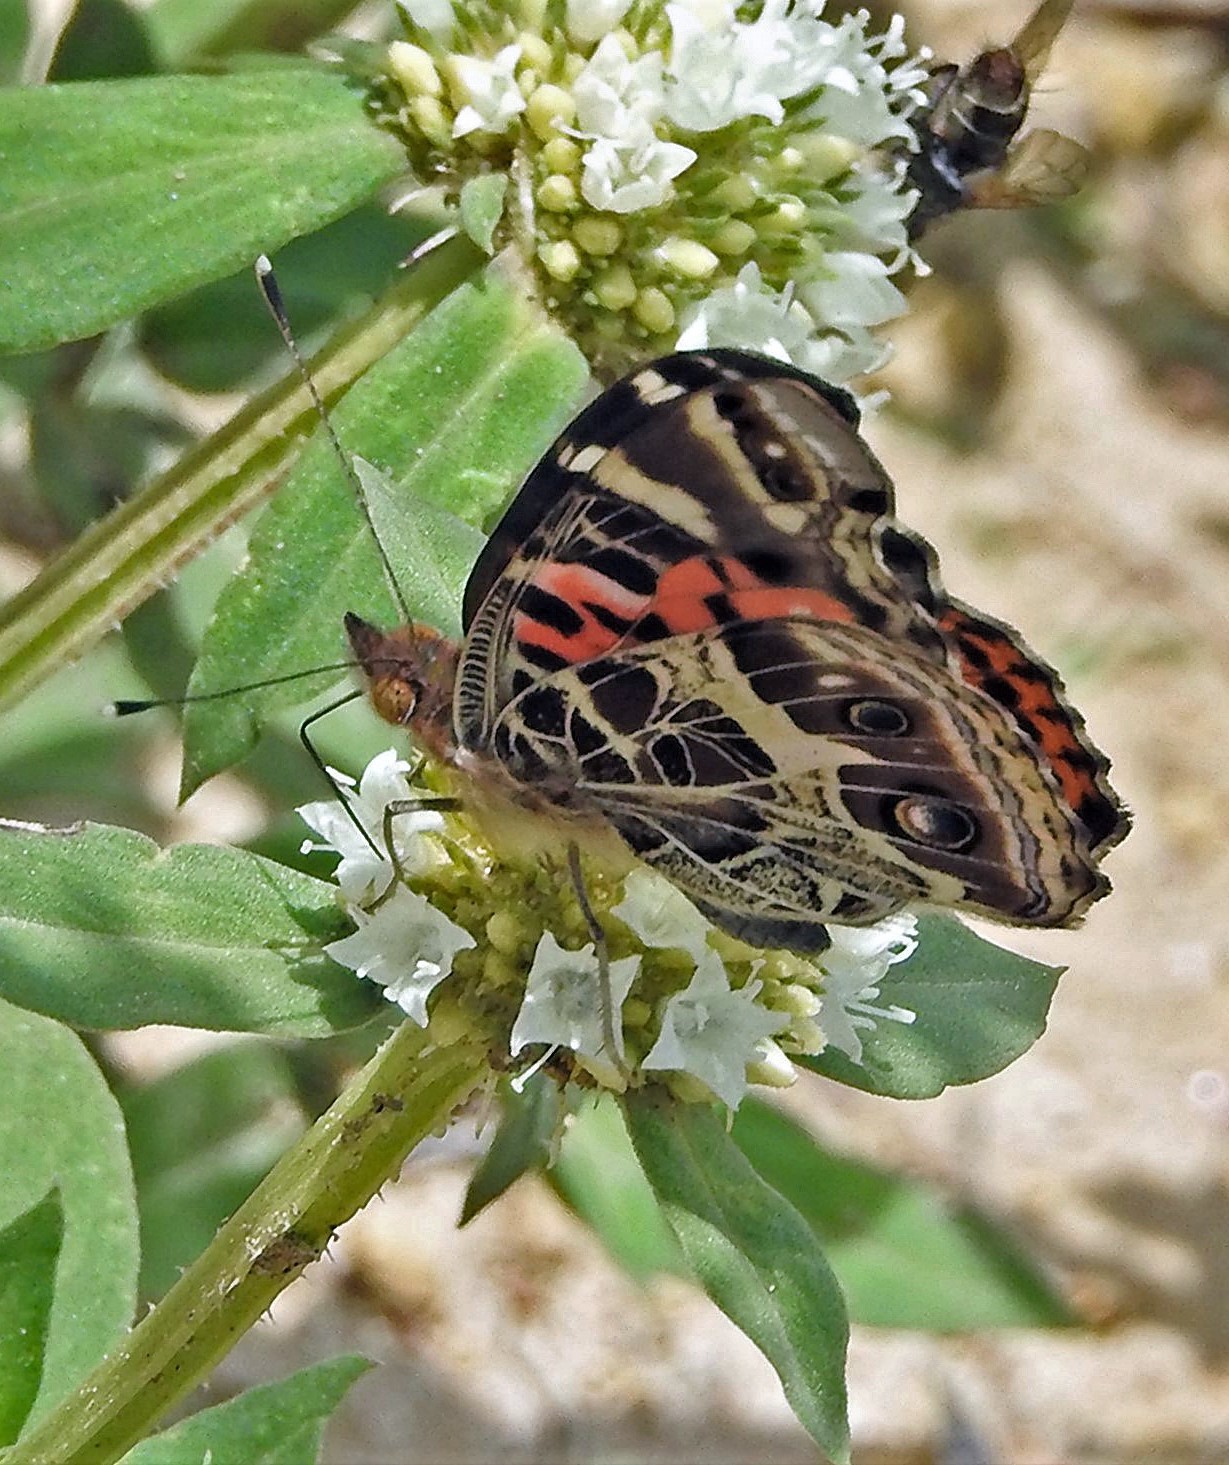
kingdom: Animalia
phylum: Arthropoda
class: Insecta
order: Lepidoptera
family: Nymphalidae
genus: Vanessa
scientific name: Vanessa braziliensis
